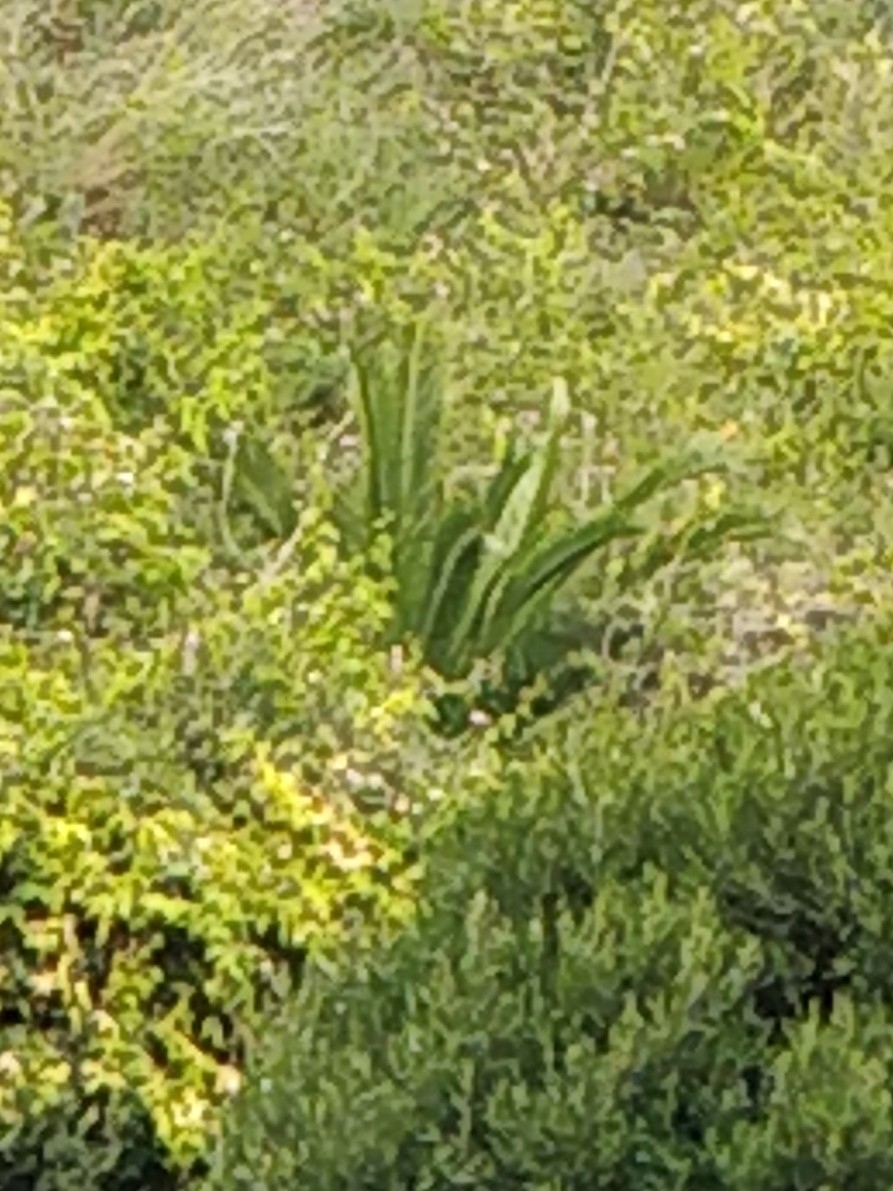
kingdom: Plantae
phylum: Tracheophyta
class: Liliopsida
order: Arecales
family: Arecaceae
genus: Phoenix
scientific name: Phoenix canariensis
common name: Canary island date palm
